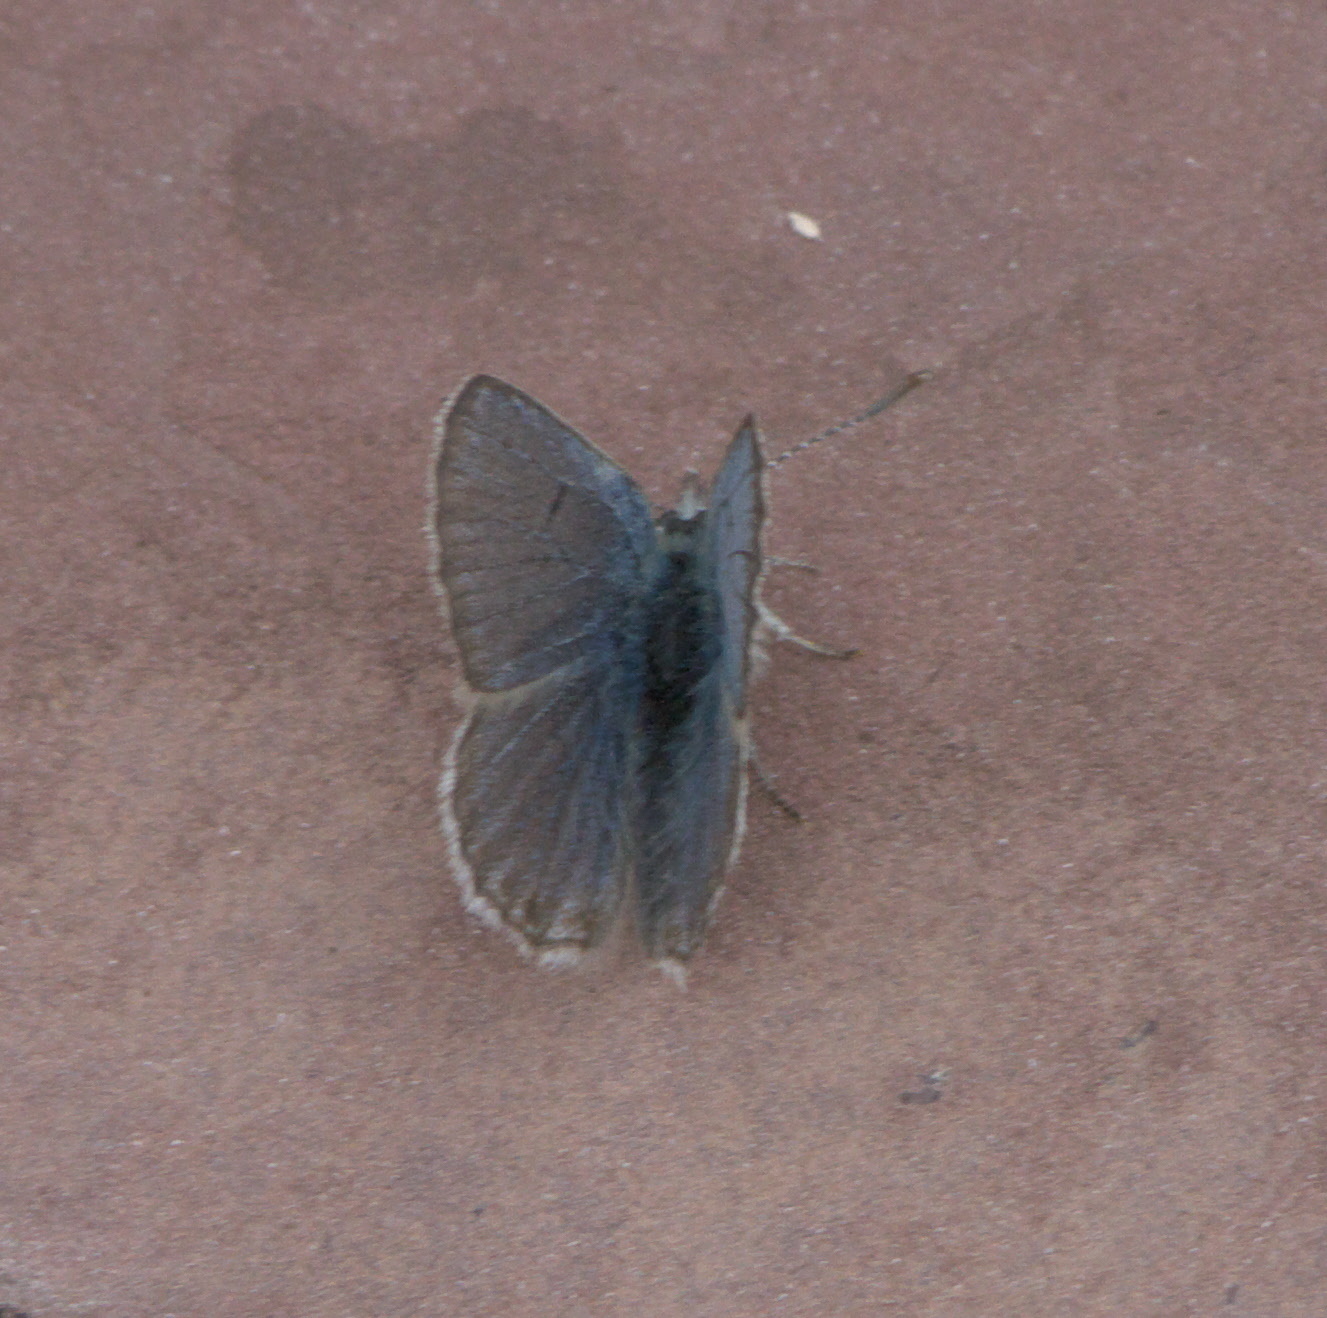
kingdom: Animalia
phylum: Arthropoda
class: Insecta
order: Lepidoptera
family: Lycaenidae
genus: Icaricia
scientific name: Icaricia shasta
